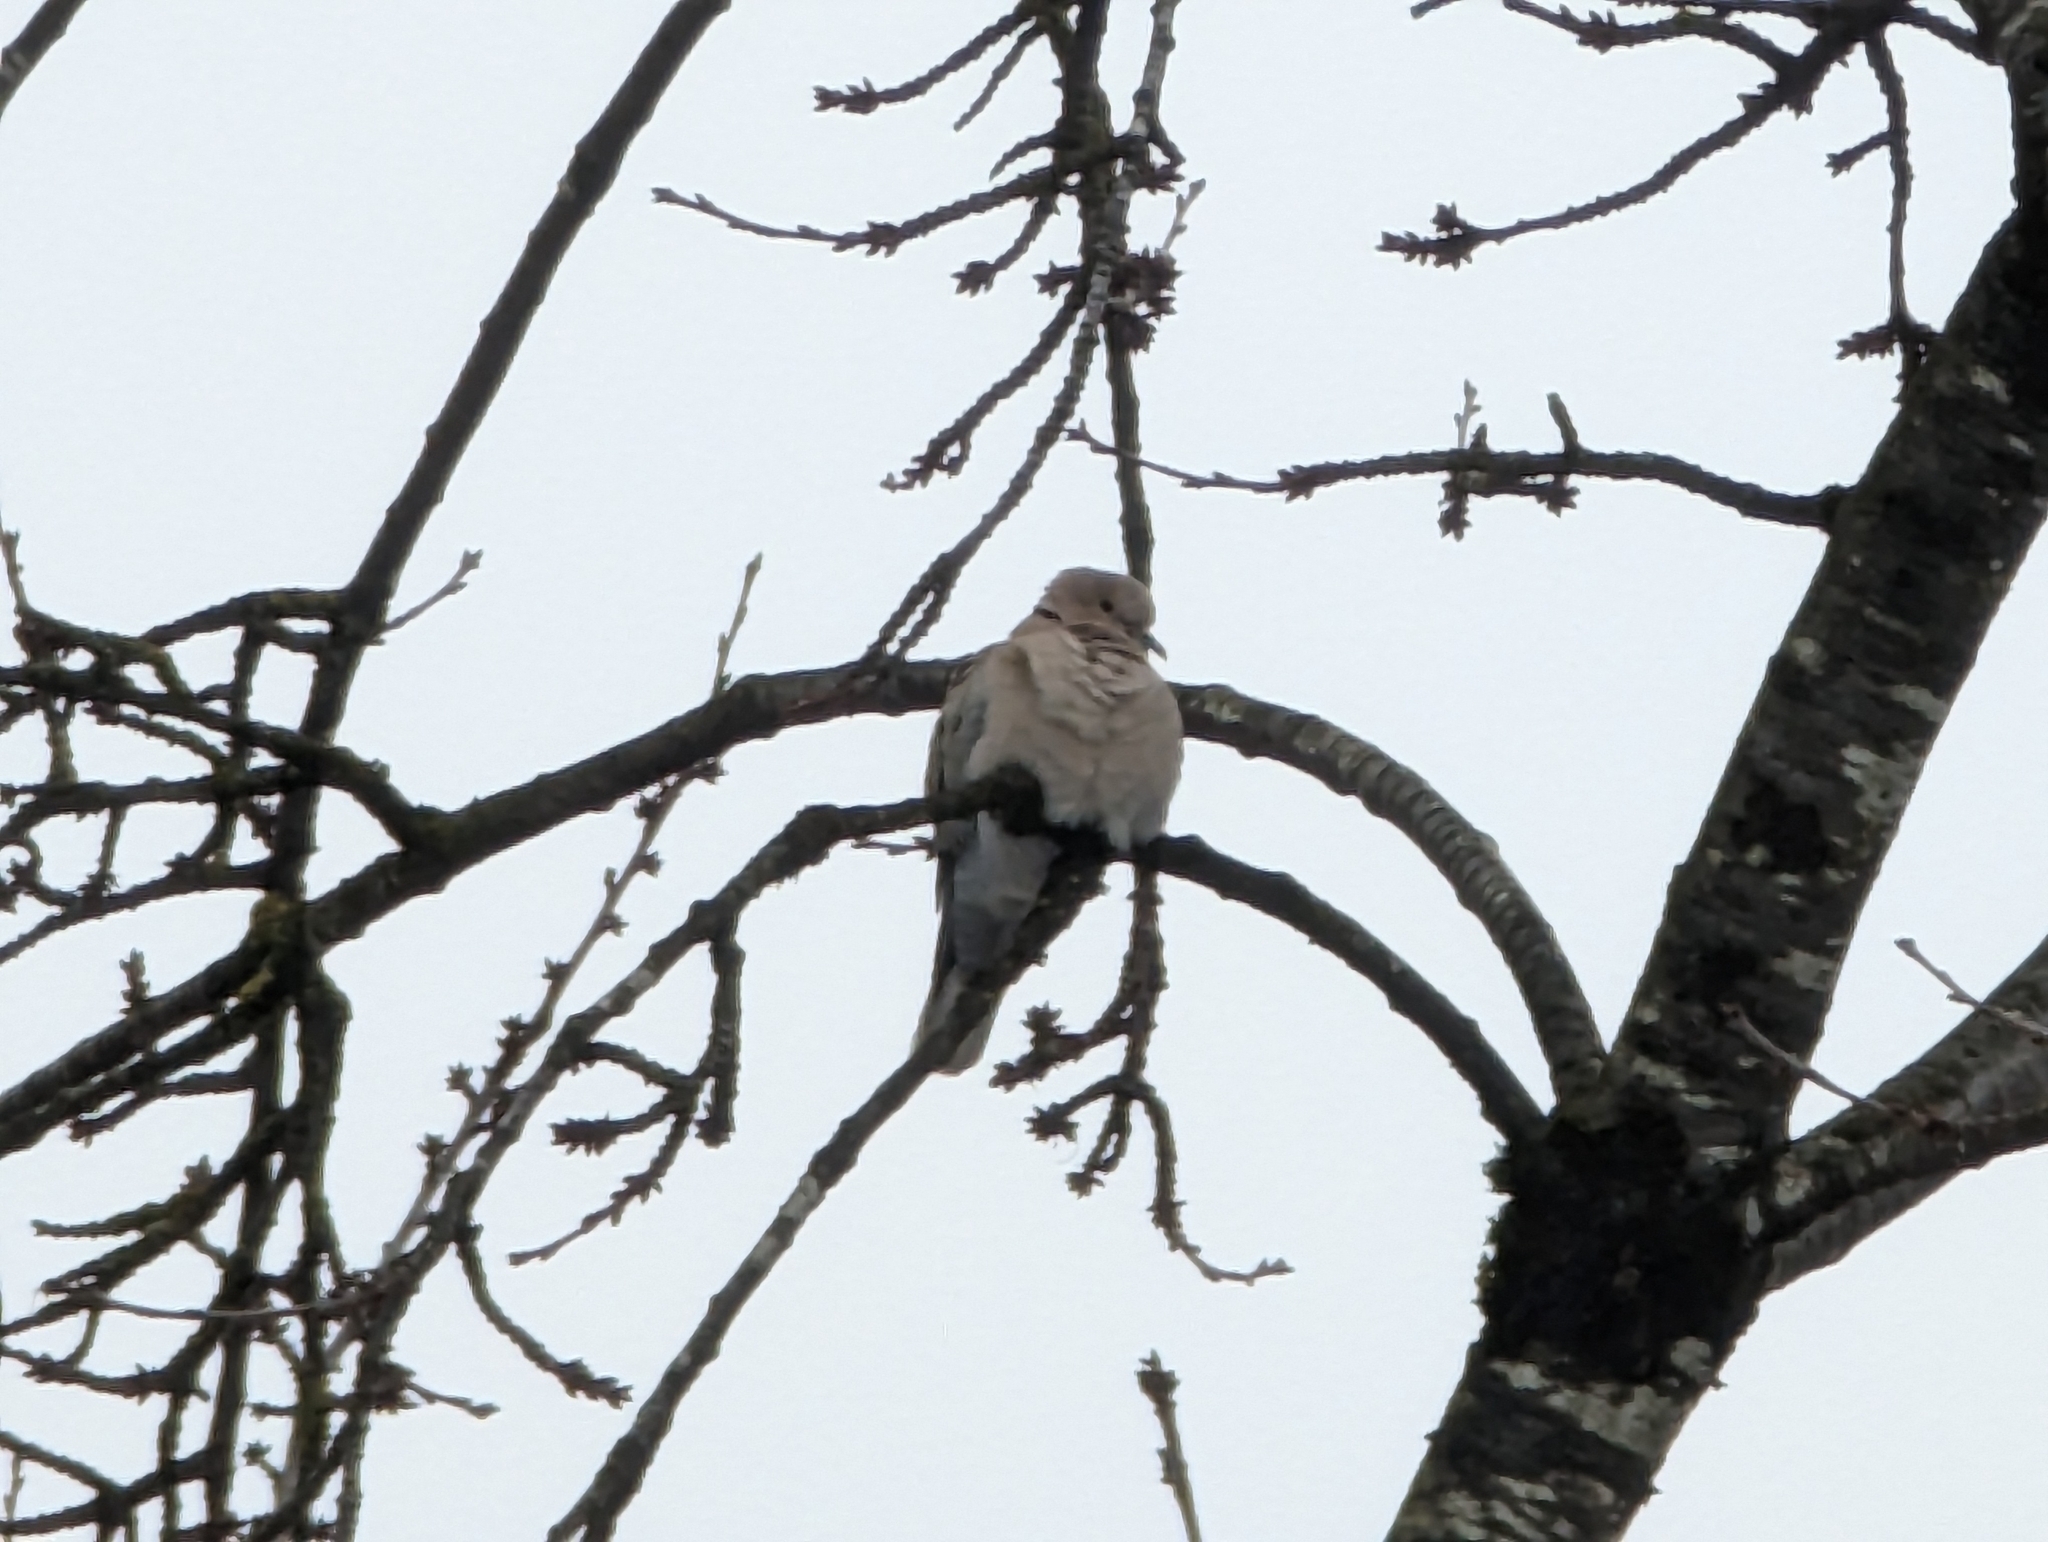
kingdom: Animalia
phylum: Chordata
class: Aves
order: Columbiformes
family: Columbidae
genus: Streptopelia
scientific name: Streptopelia decaocto
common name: Eurasian collared dove
